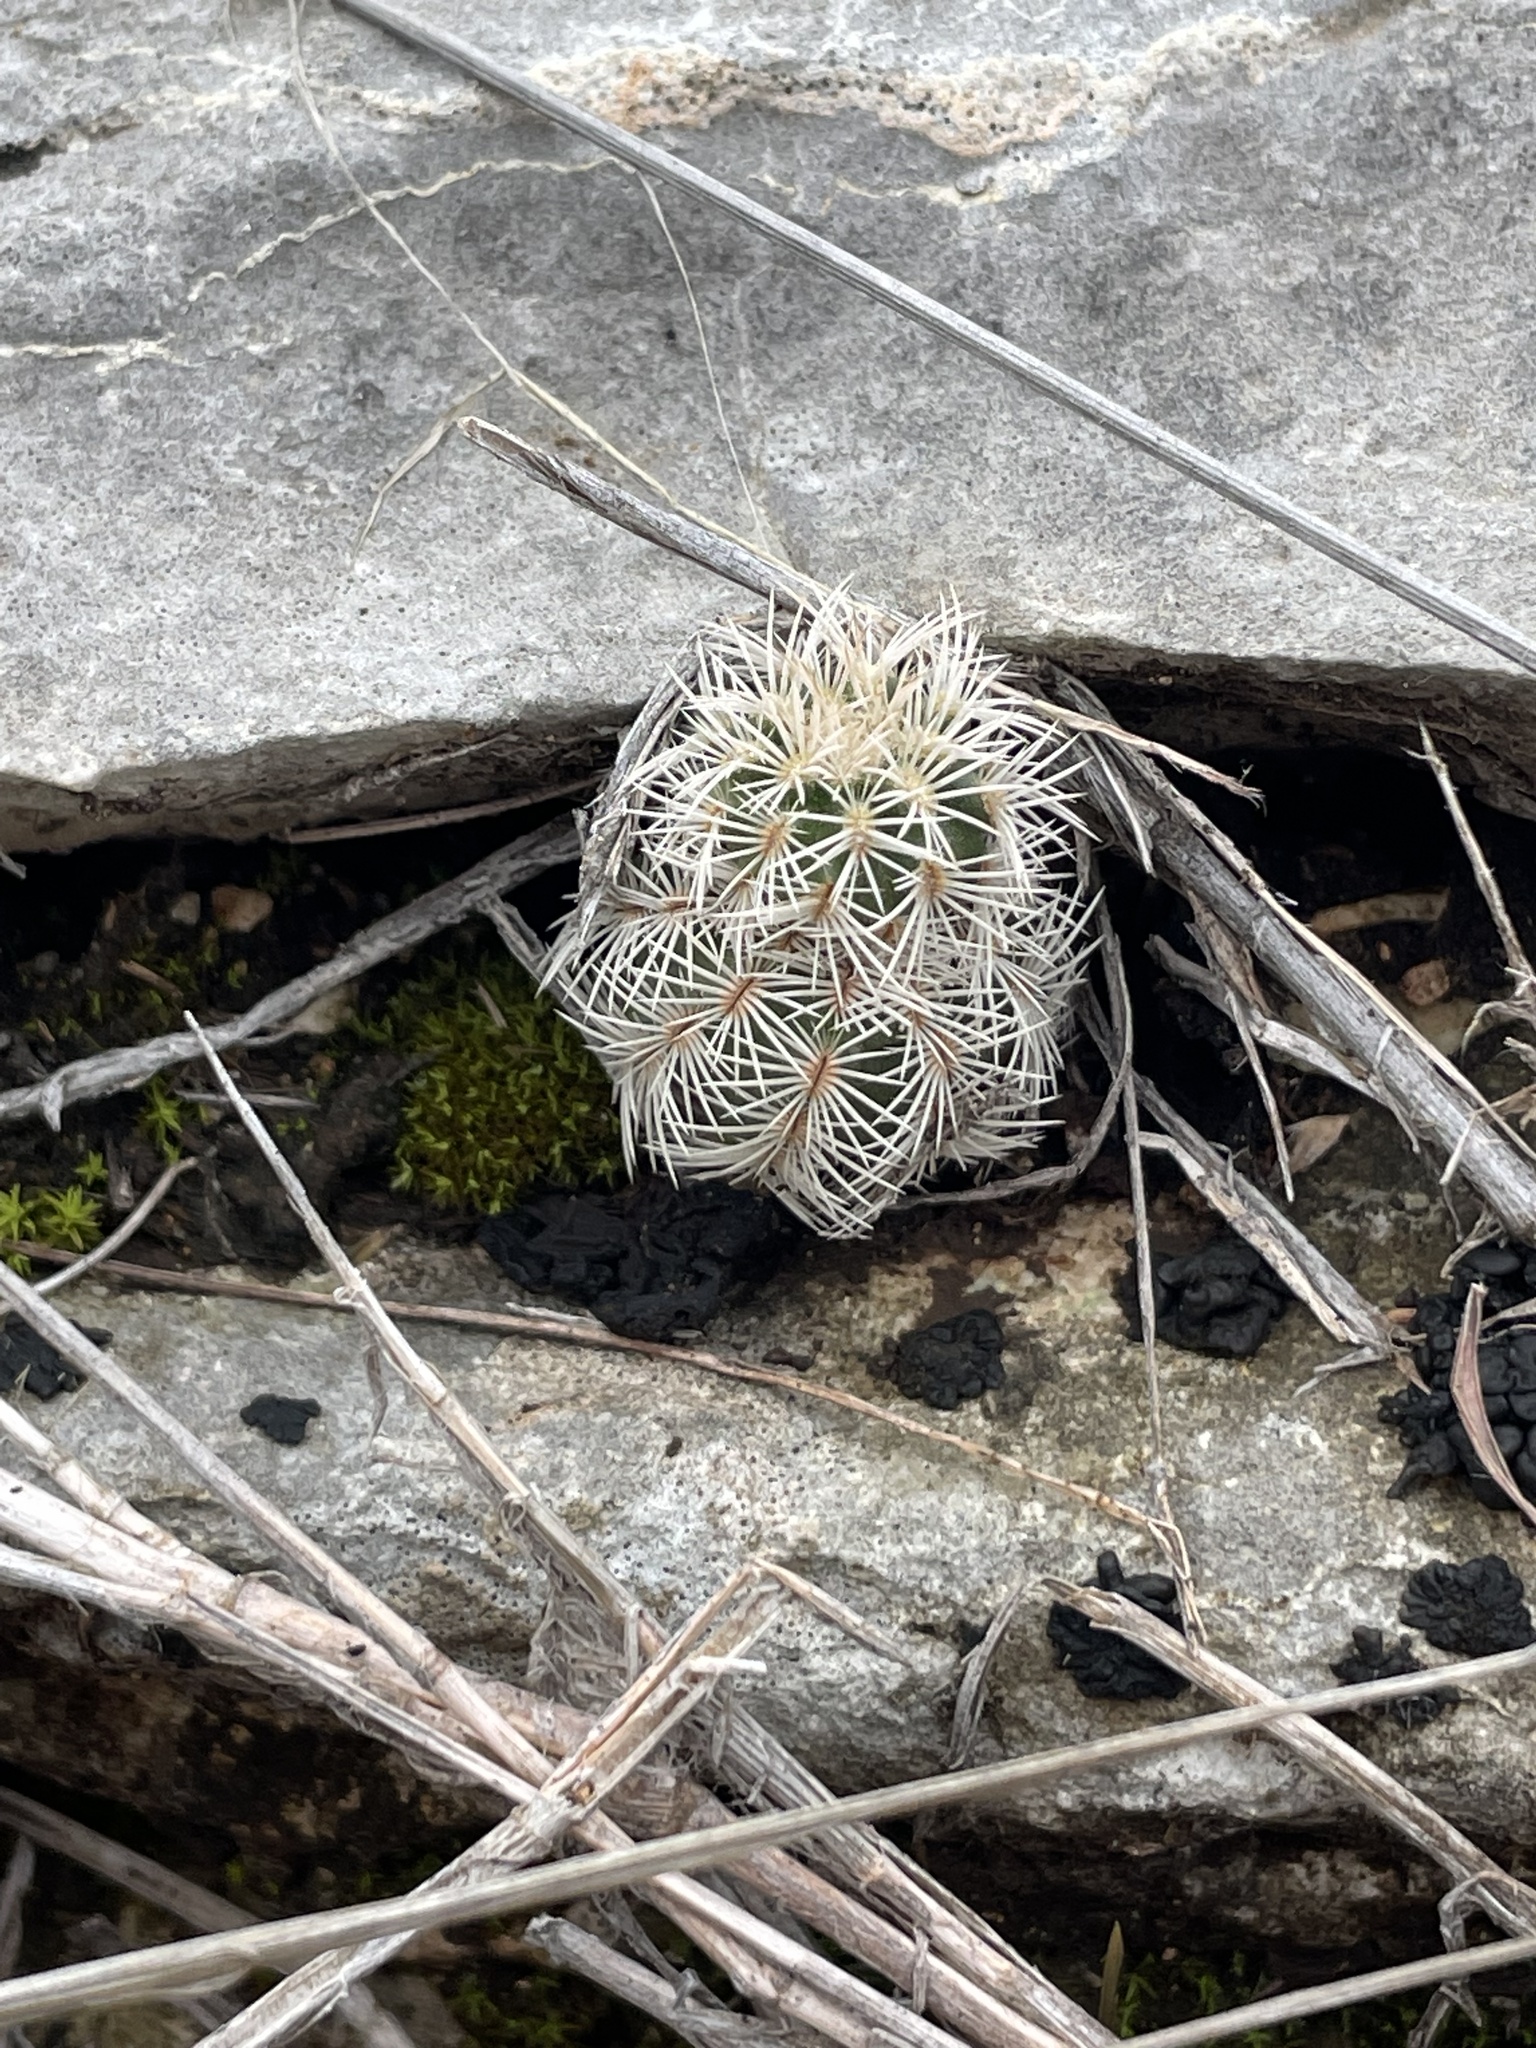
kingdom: Plantae
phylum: Tracheophyta
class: Magnoliopsida
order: Caryophyllales
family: Cactaceae
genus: Echinocereus
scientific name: Echinocereus reichenbachii
